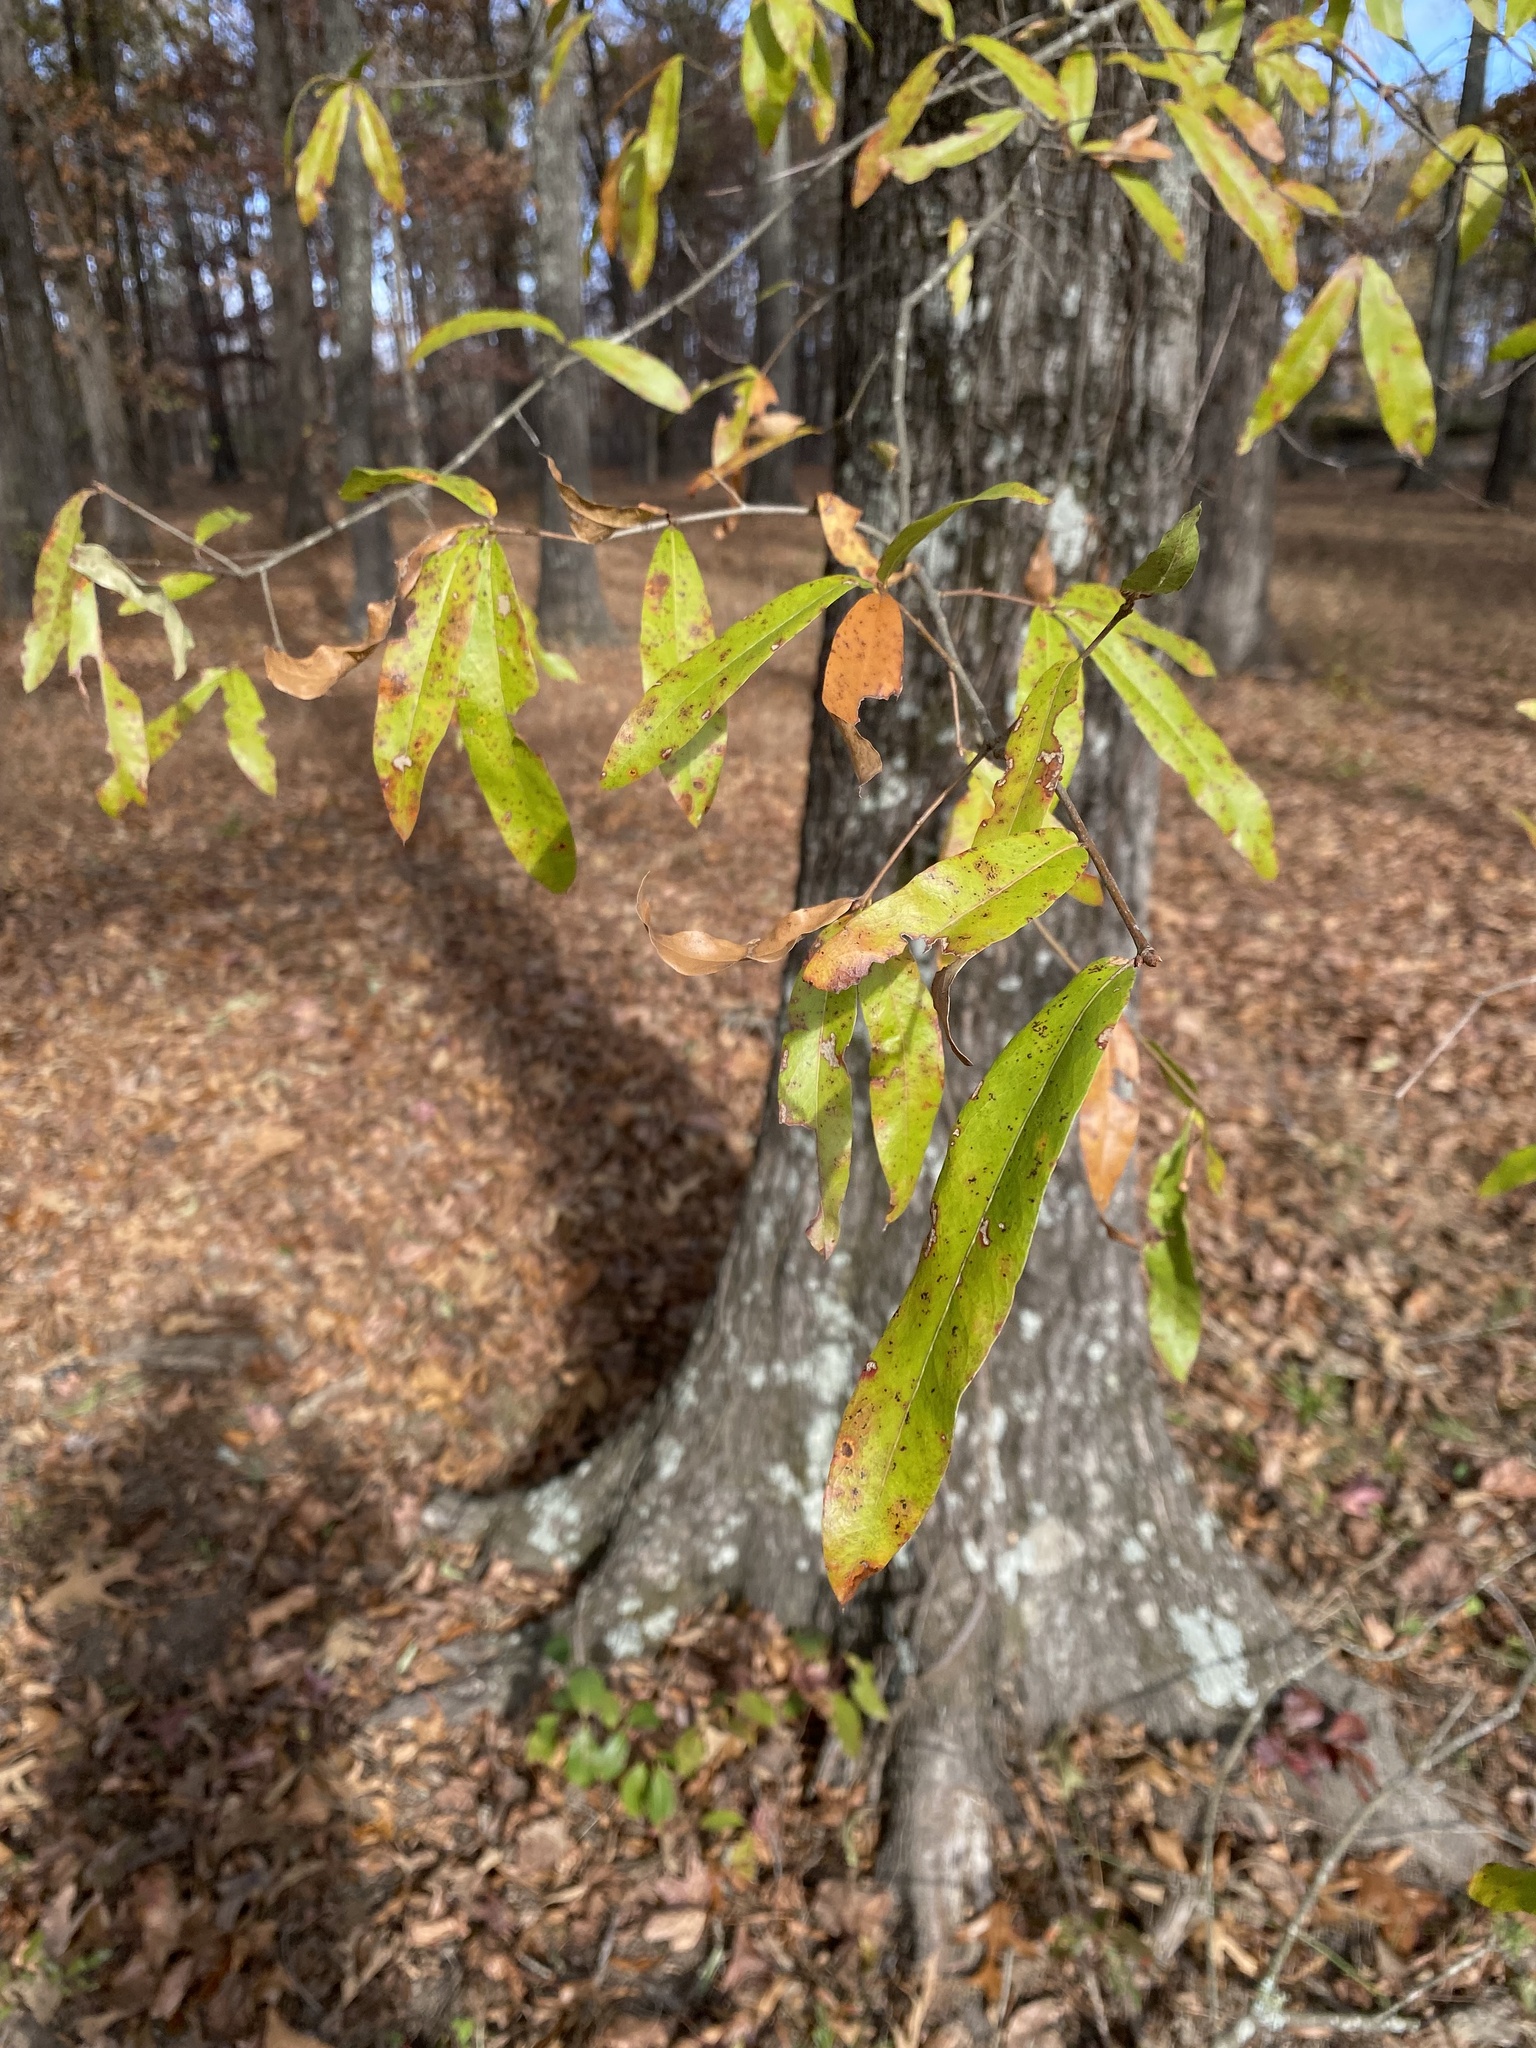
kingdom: Plantae
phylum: Tracheophyta
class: Magnoliopsida
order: Fagales
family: Fagaceae
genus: Quercus
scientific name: Quercus phellos
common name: Willow oak
